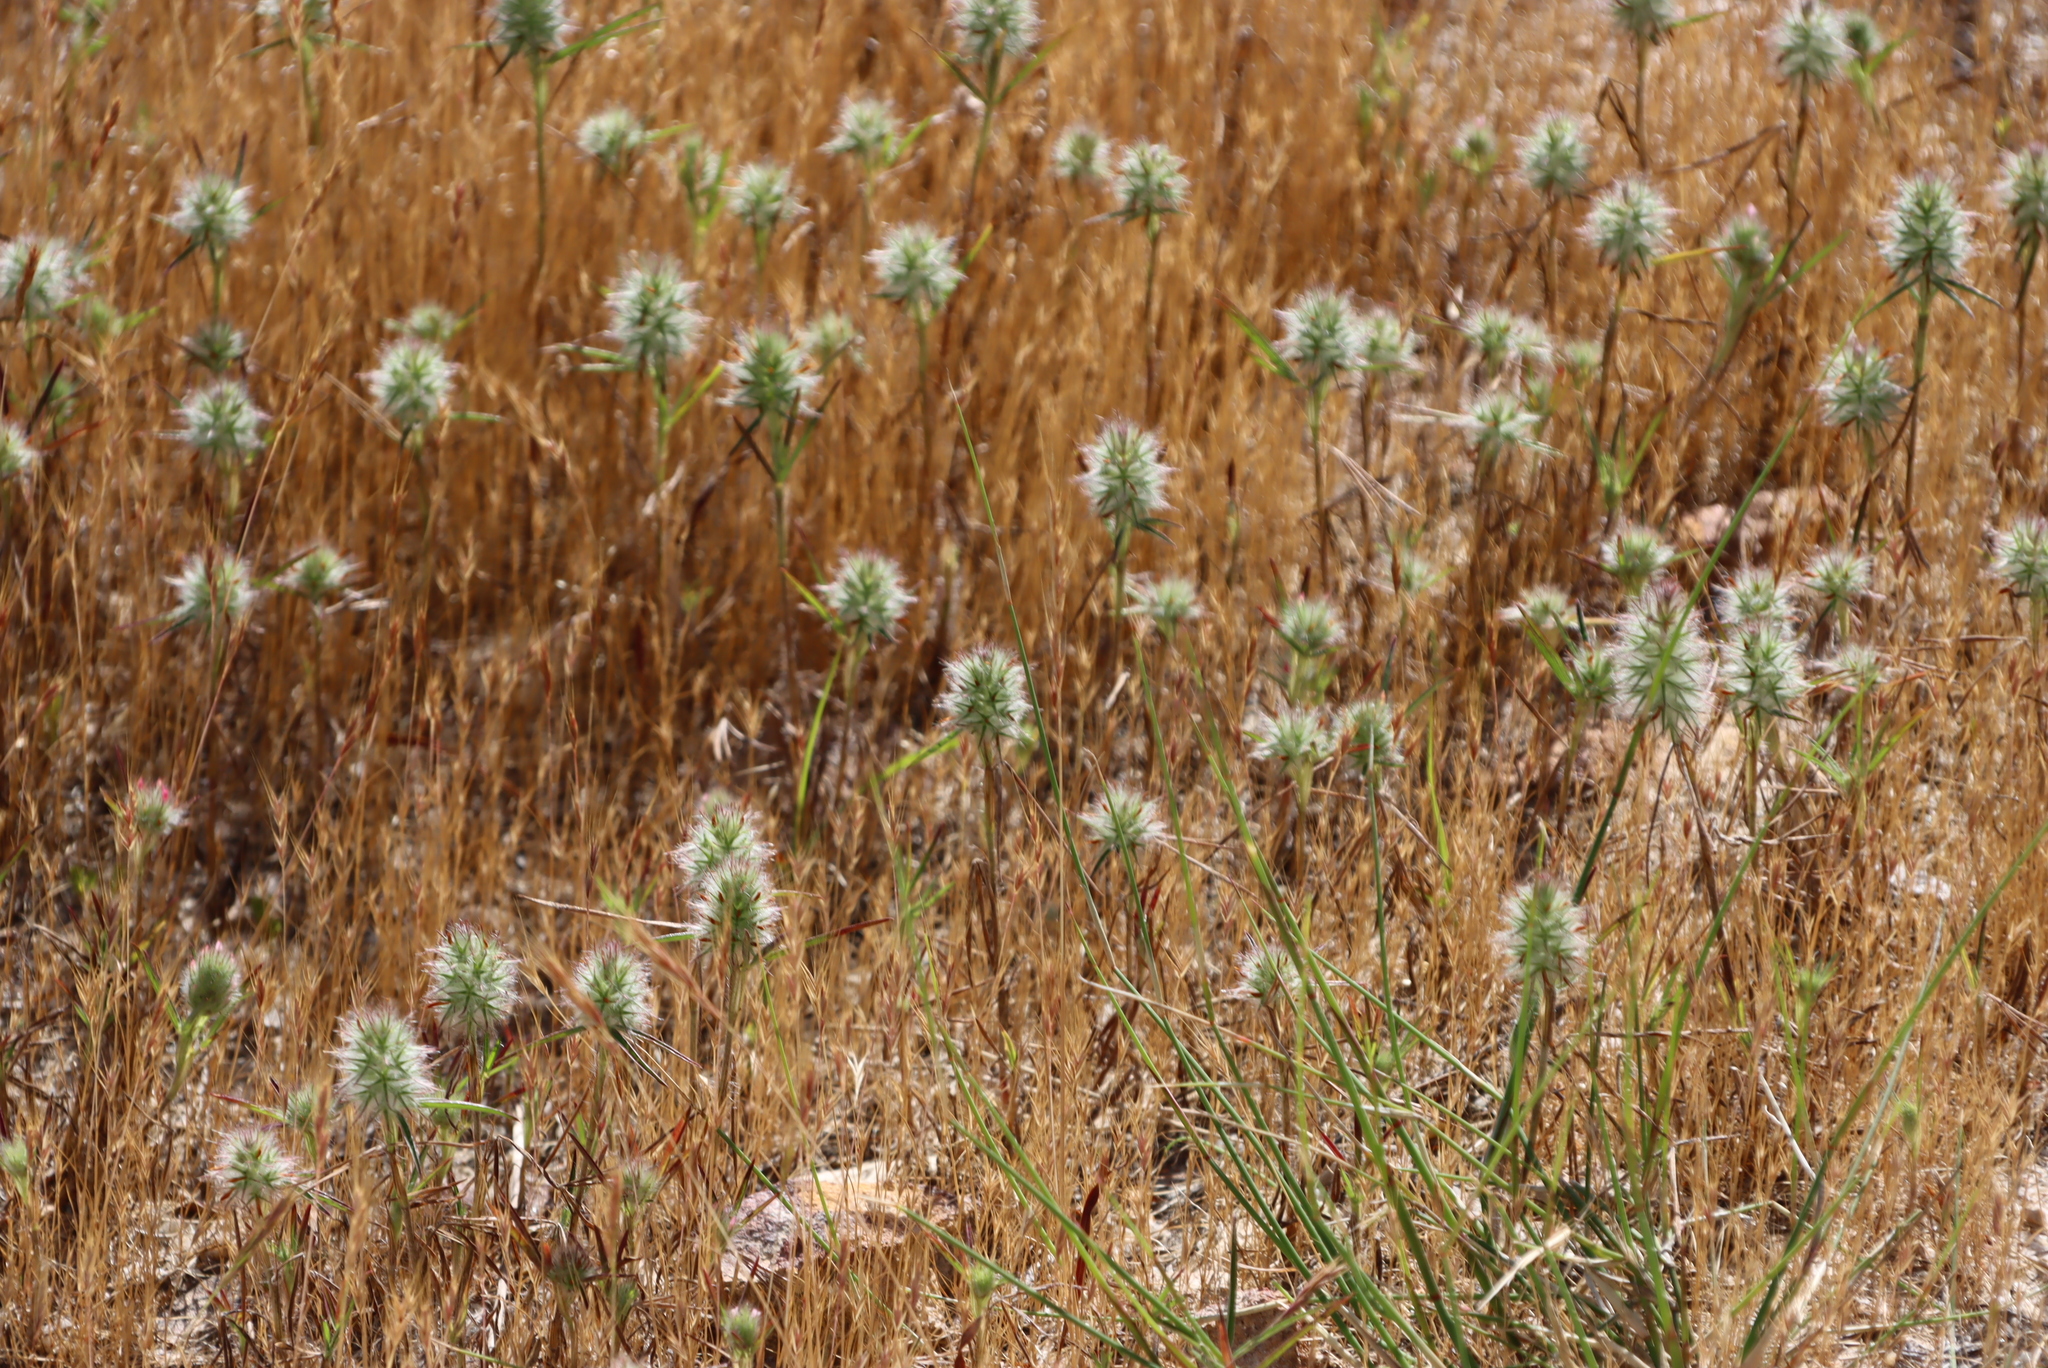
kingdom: Plantae
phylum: Tracheophyta
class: Magnoliopsida
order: Fabales
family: Fabaceae
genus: Trifolium
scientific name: Trifolium angustifolium
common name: Narrow clover
